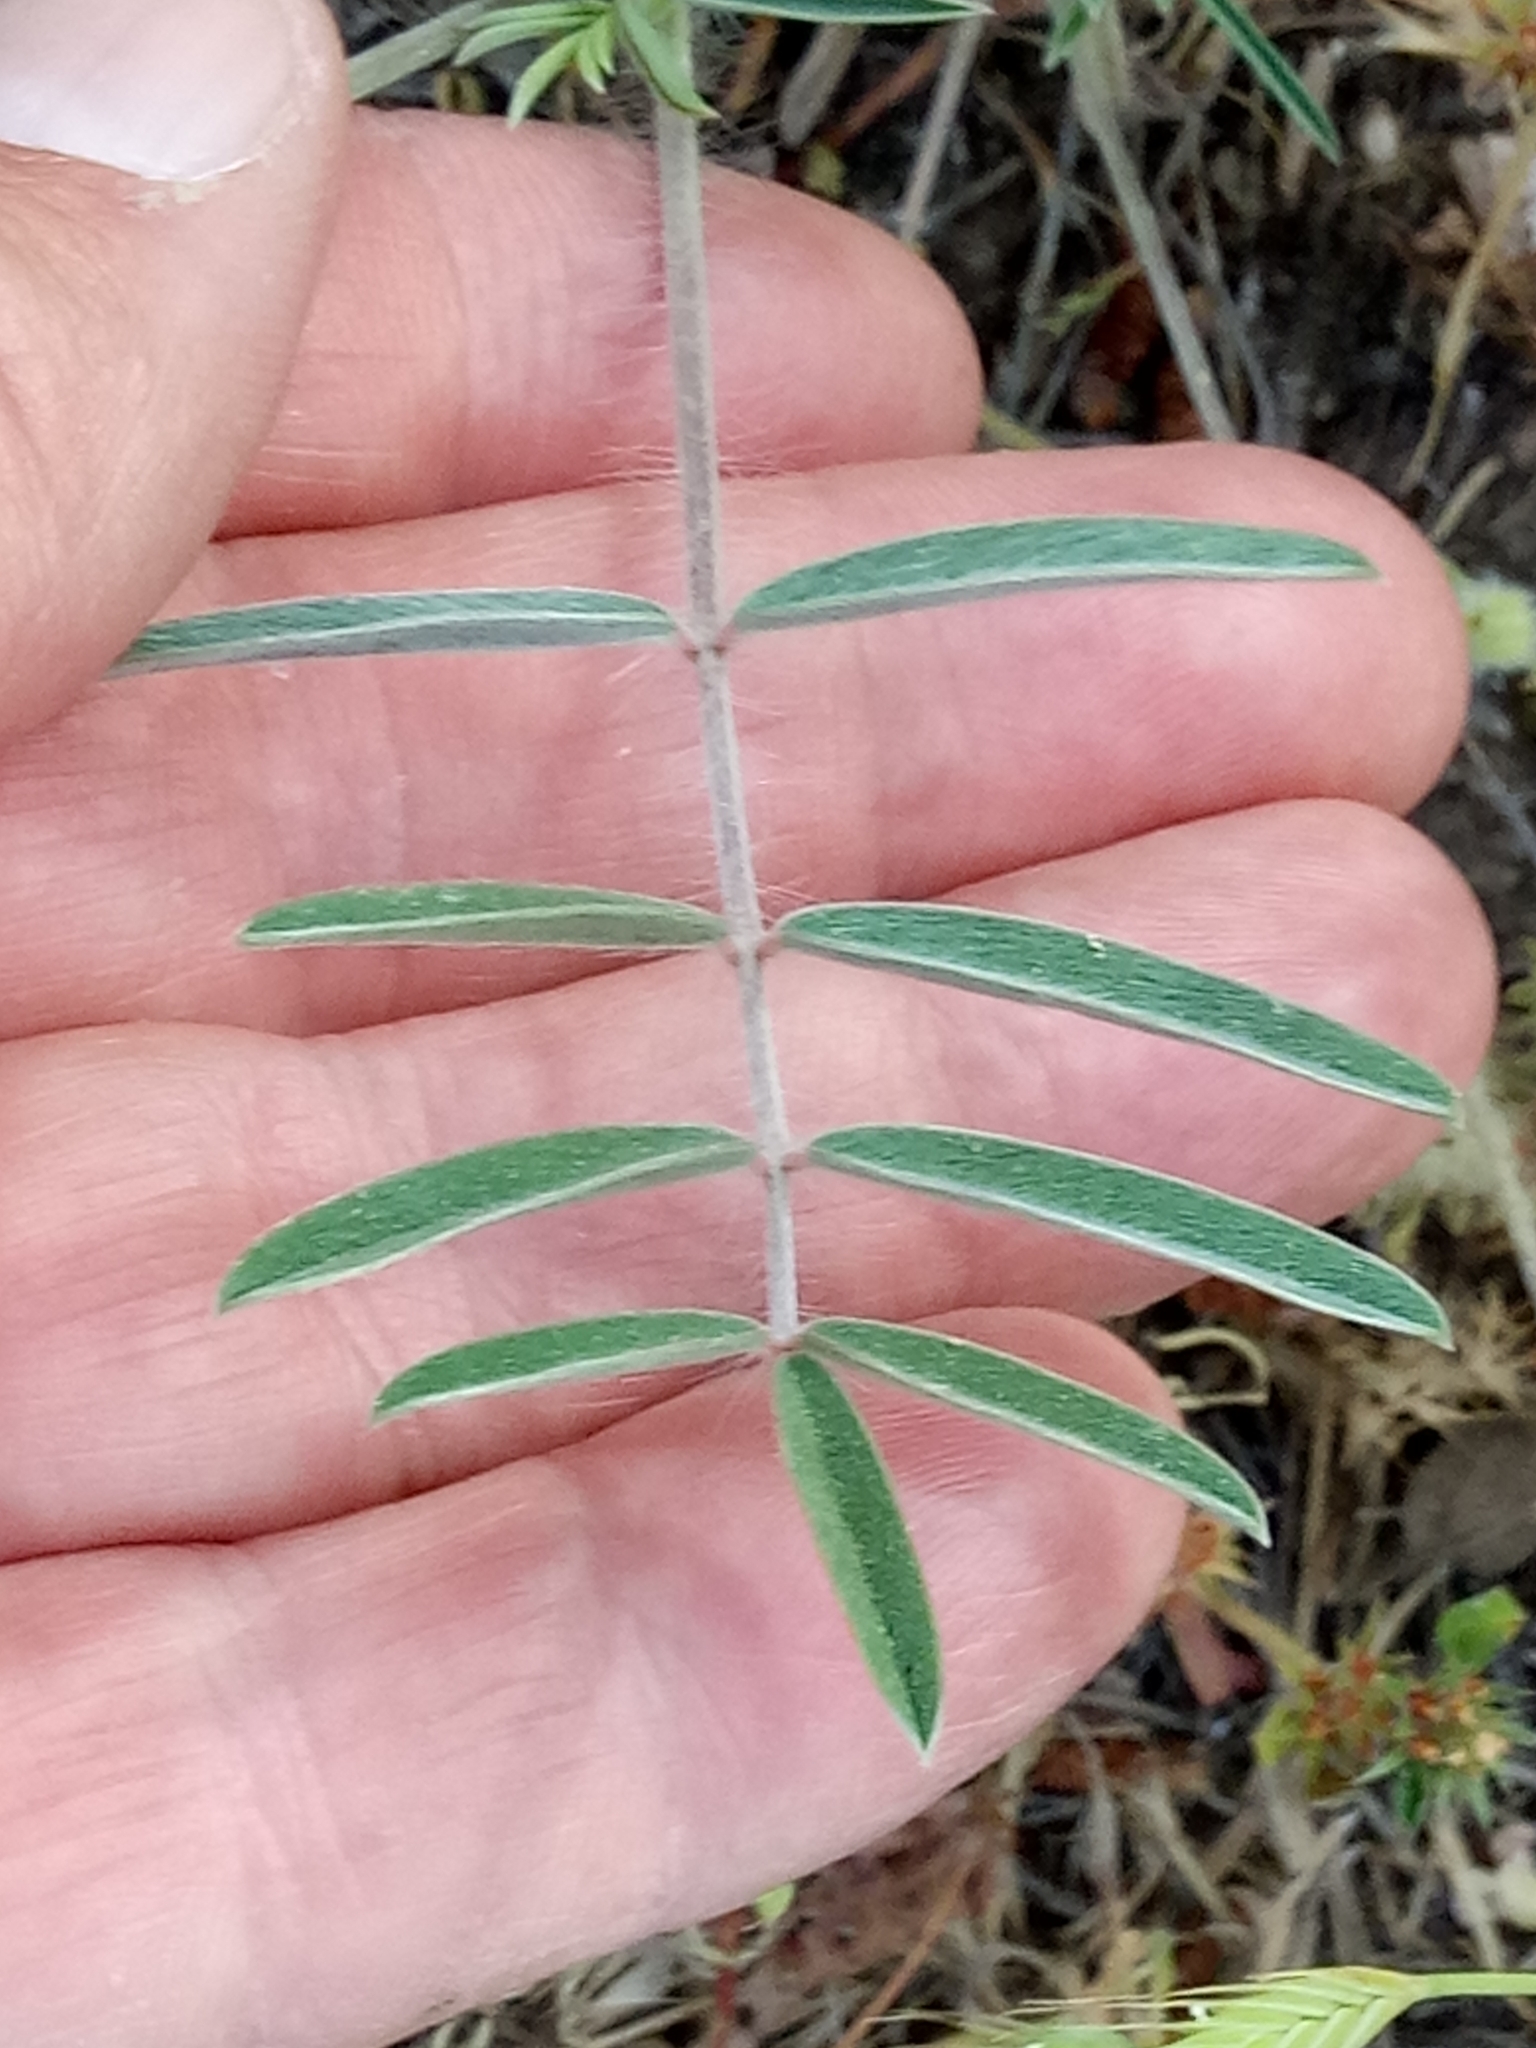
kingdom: Plantae
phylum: Tracheophyta
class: Magnoliopsida
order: Fabales
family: Fabaceae
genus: Ebenus
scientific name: Ebenus pinnata
